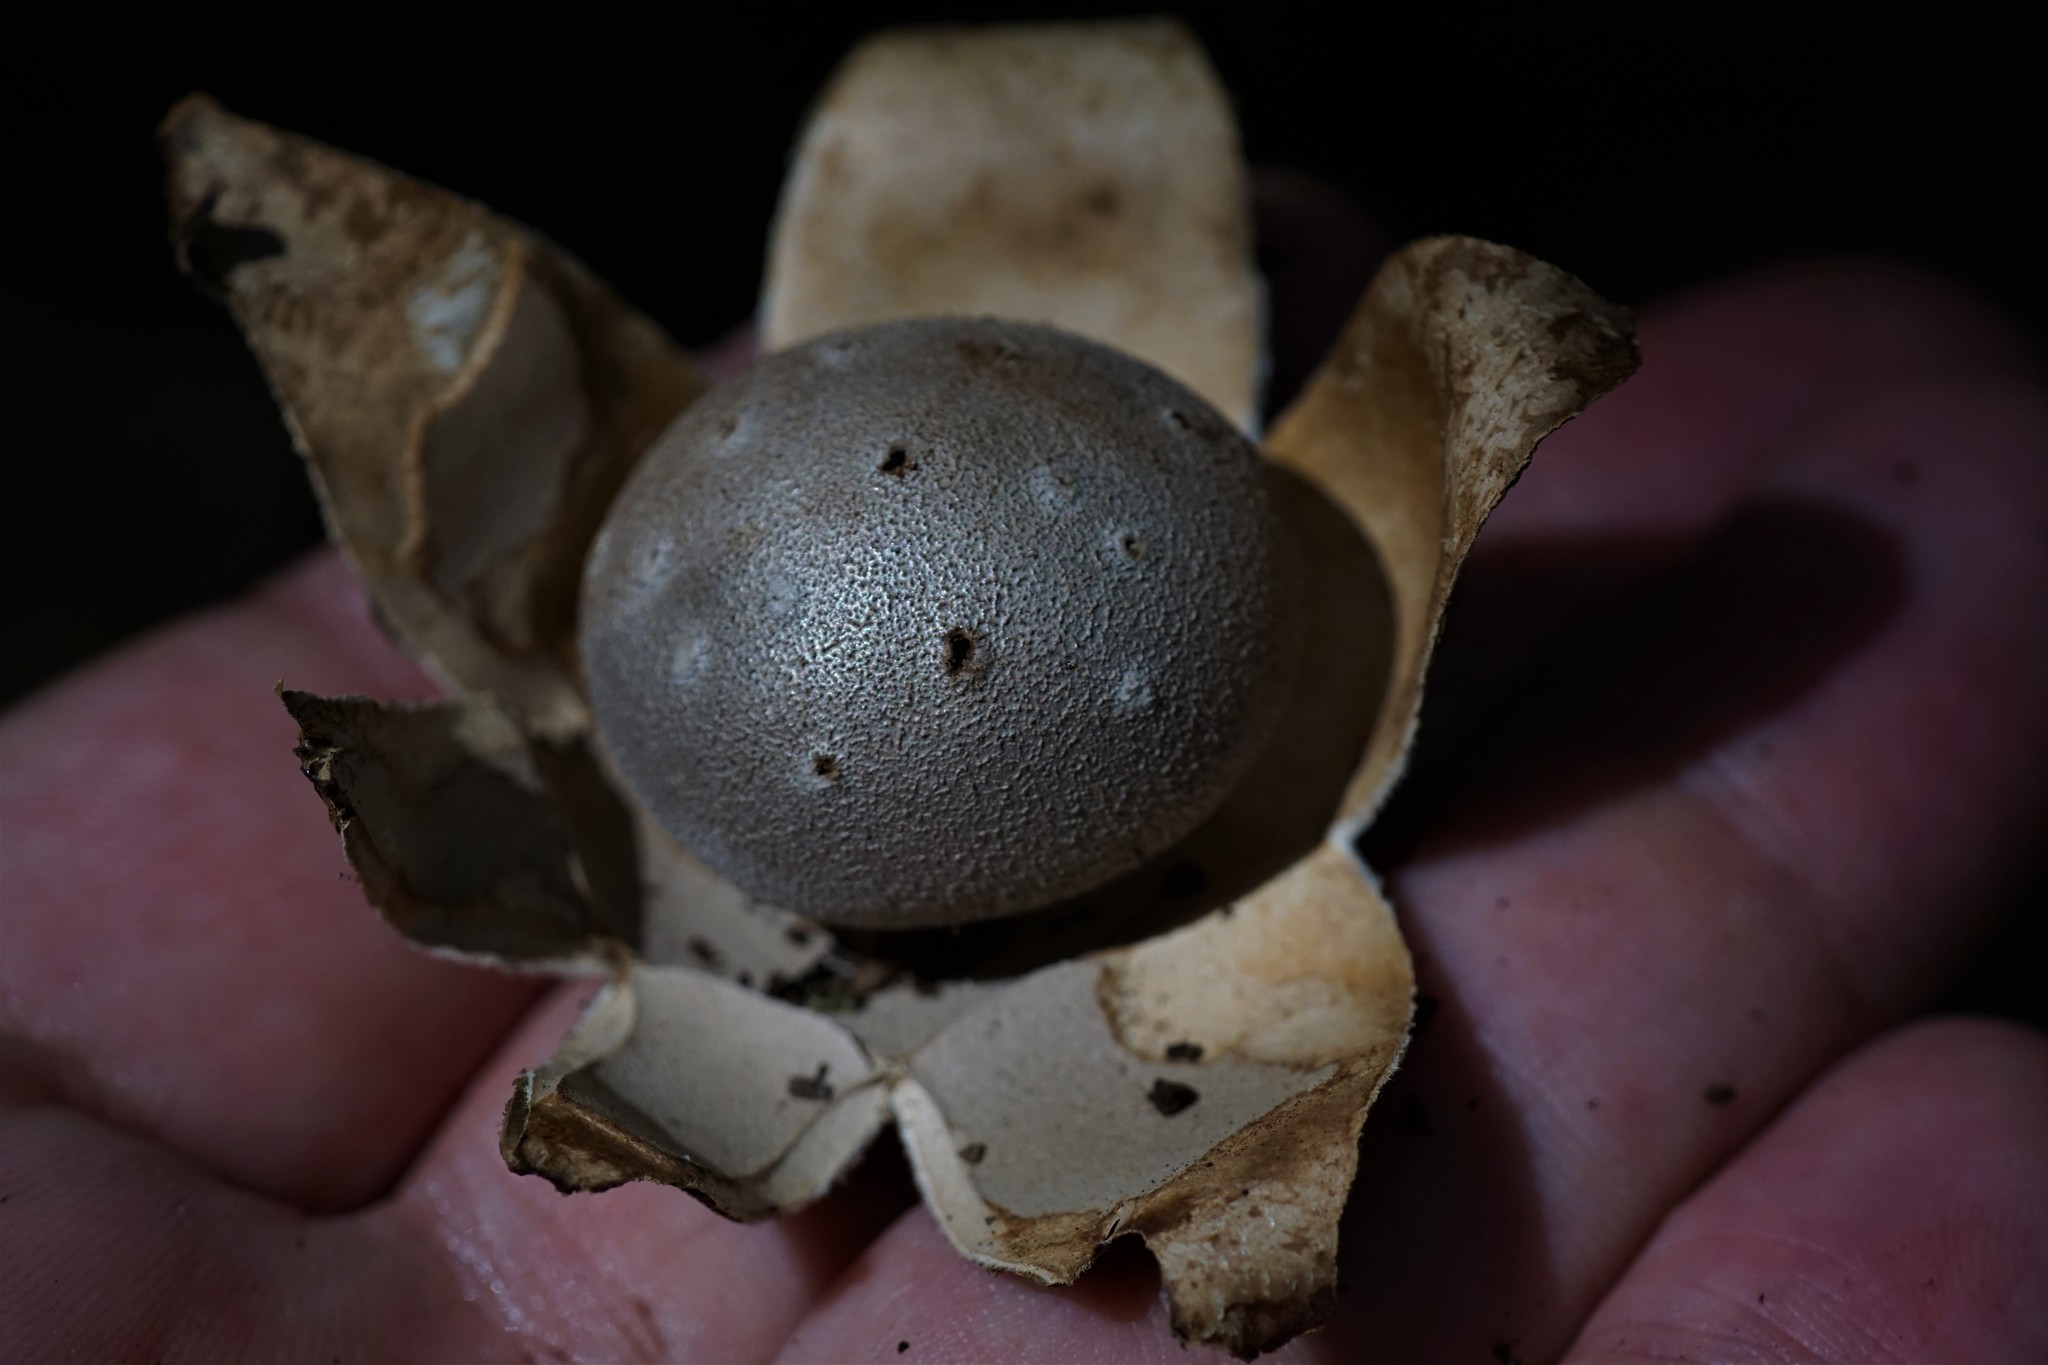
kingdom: Fungi
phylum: Basidiomycota
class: Agaricomycetes
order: Geastrales
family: Geastraceae
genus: Myriostoma
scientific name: Myriostoma coliforme
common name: Pepper pot
